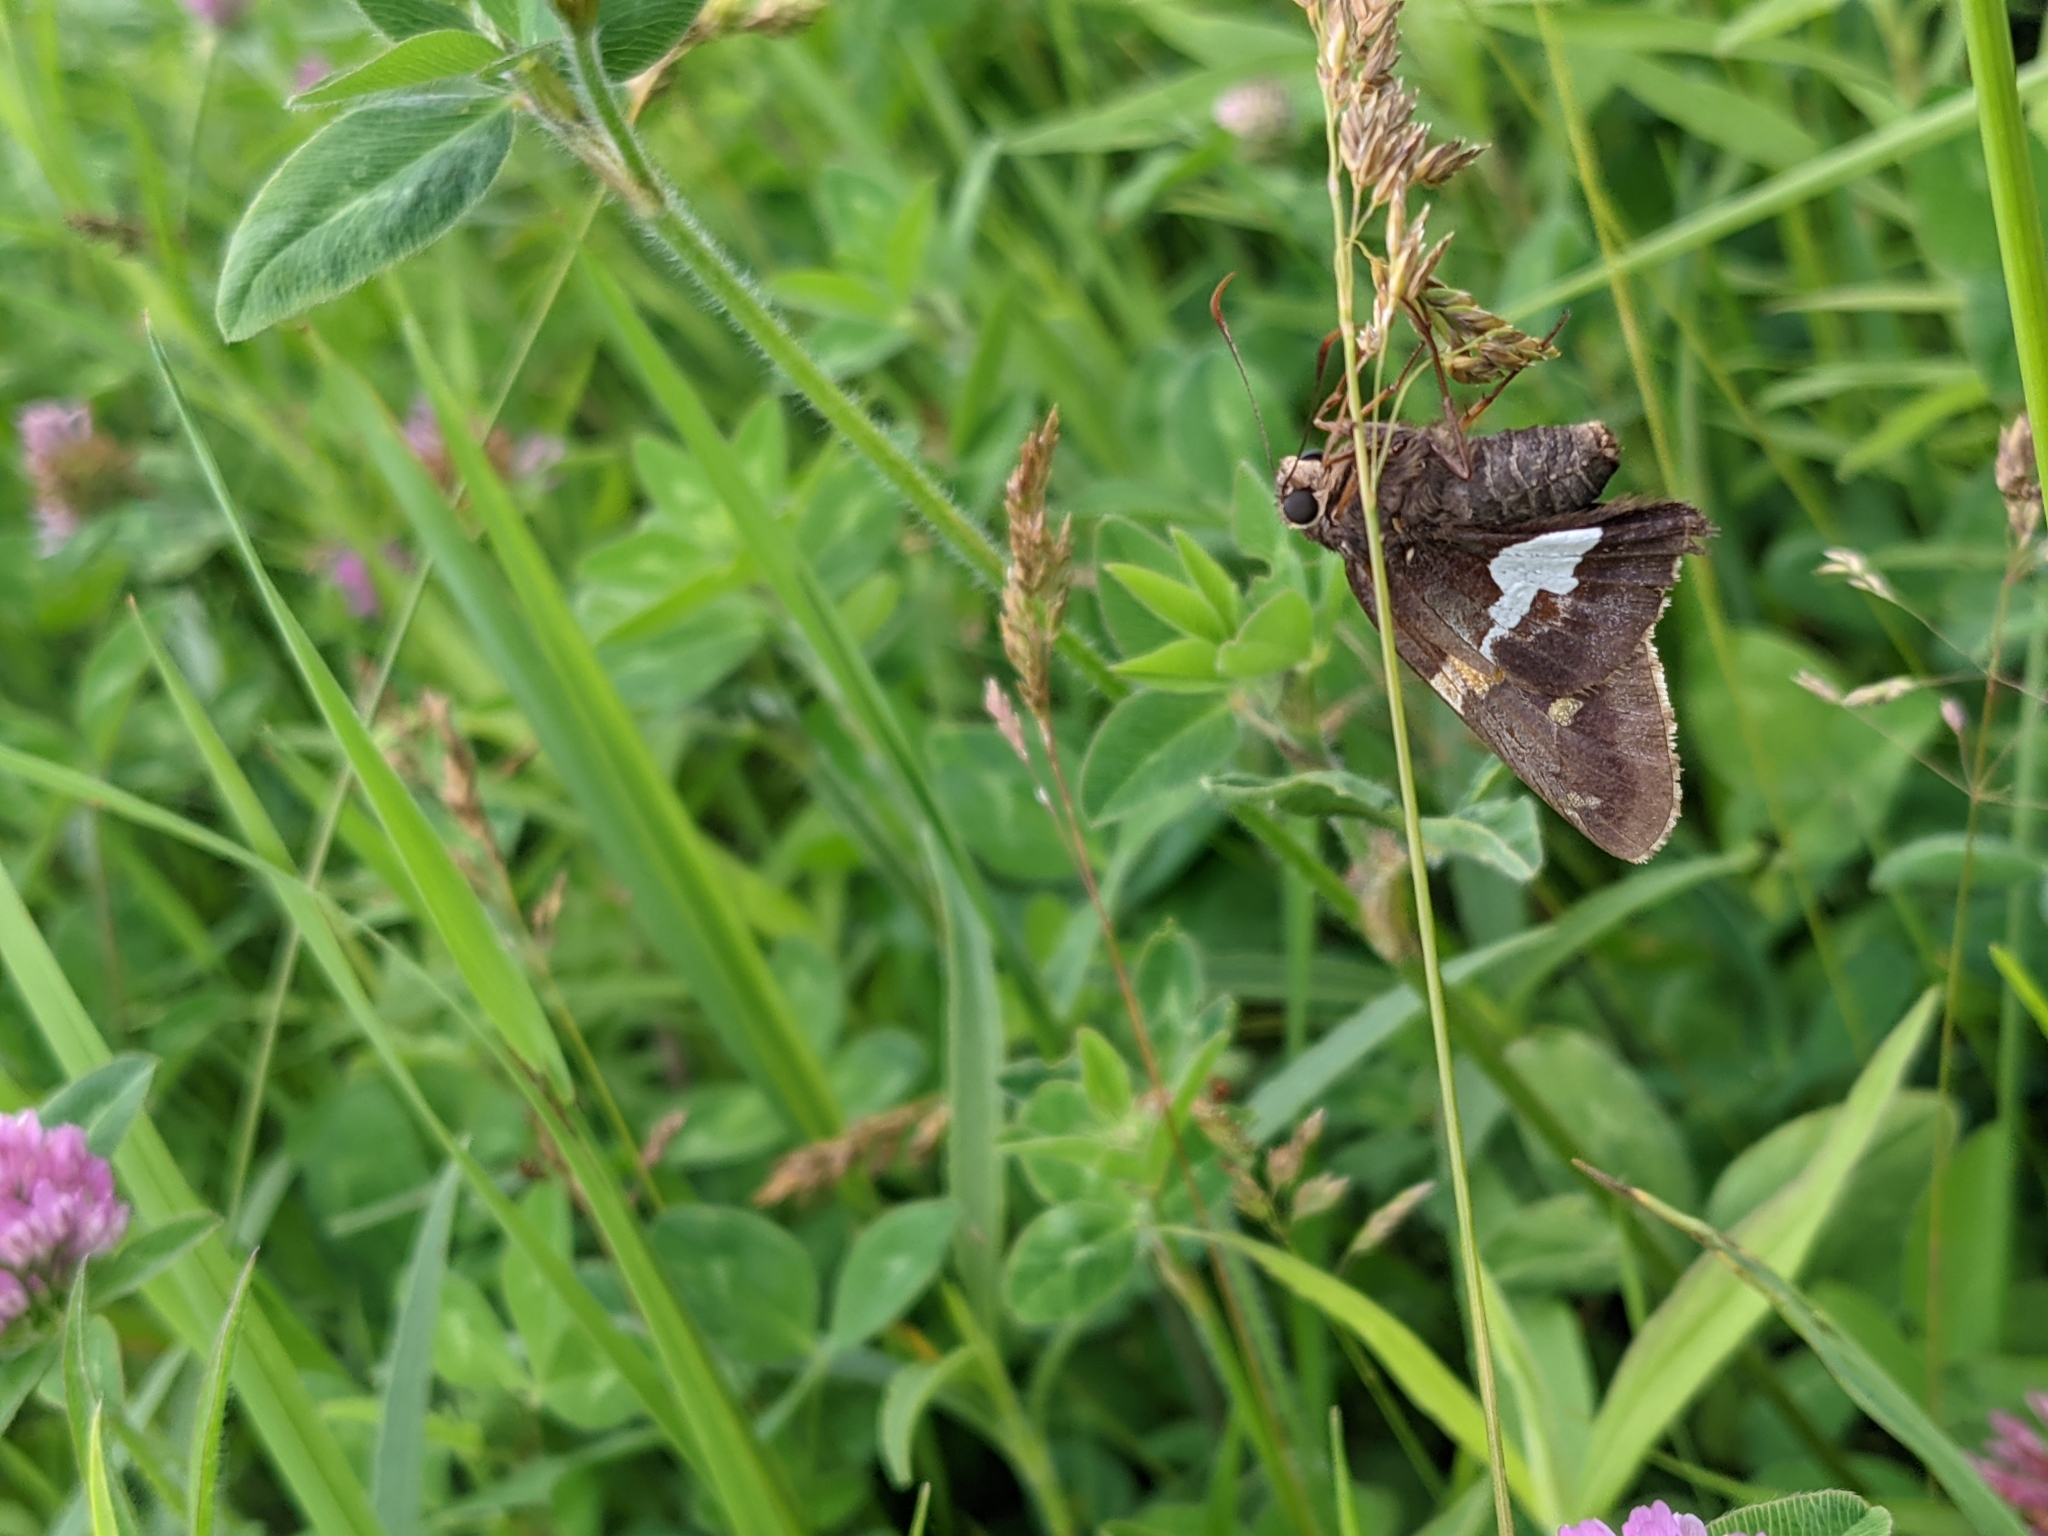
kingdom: Animalia
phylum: Arthropoda
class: Insecta
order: Lepidoptera
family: Hesperiidae
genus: Epargyreus
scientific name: Epargyreus clarus
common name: Silver-spotted skipper
